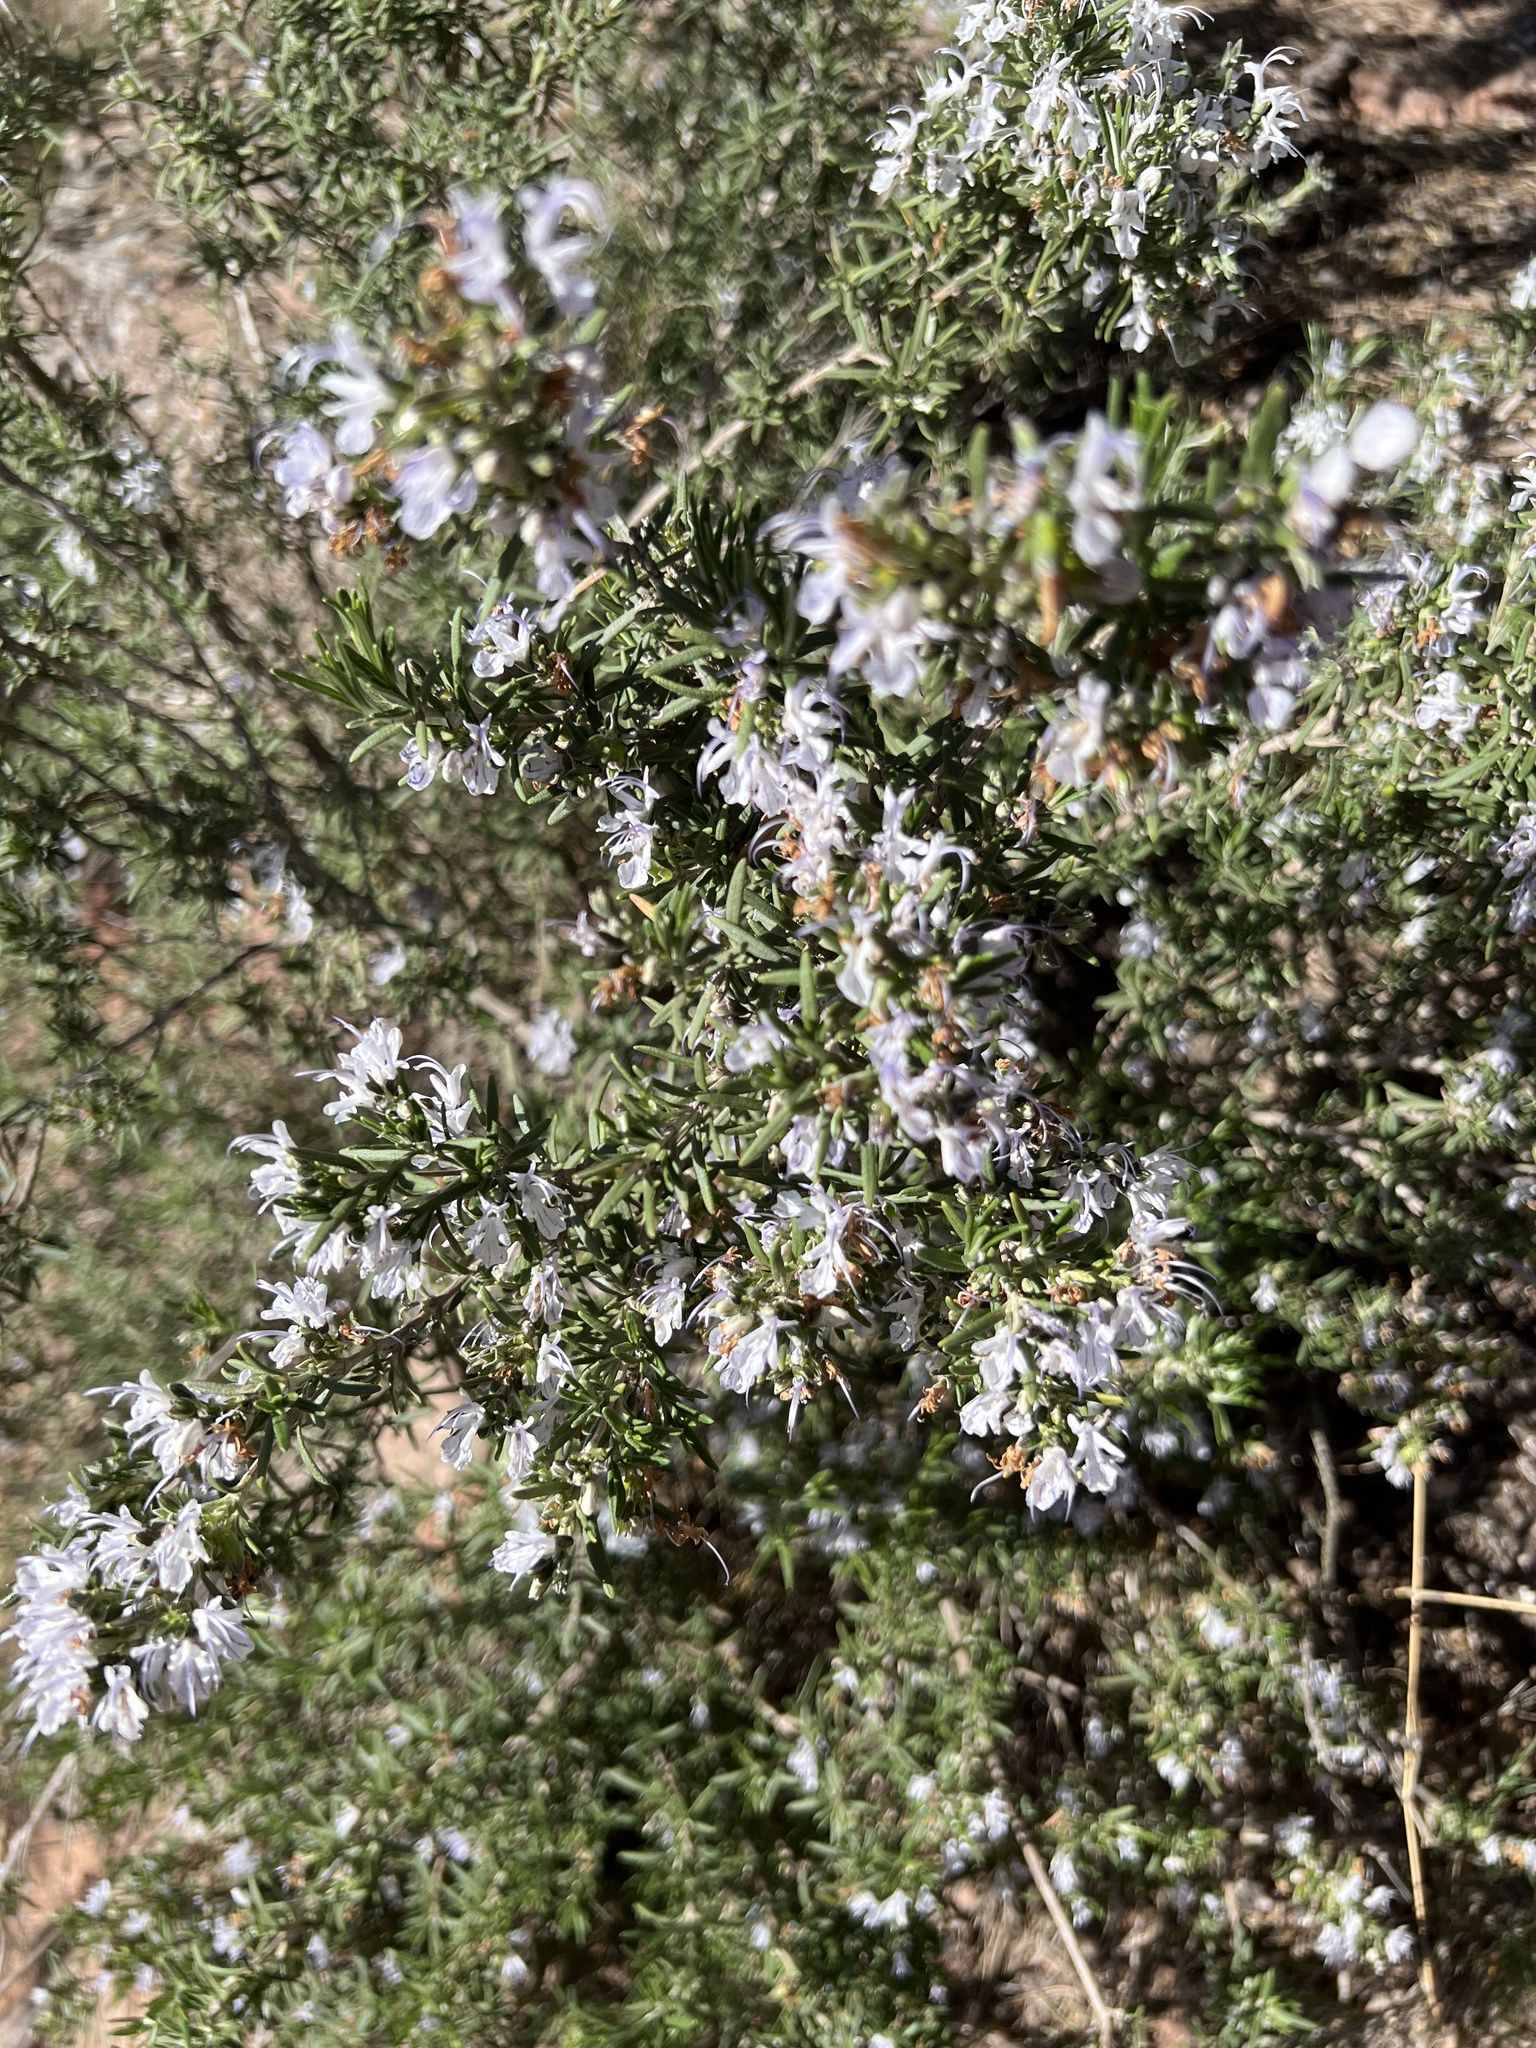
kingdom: Plantae
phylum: Tracheophyta
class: Magnoliopsida
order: Lamiales
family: Lamiaceae
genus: Salvia
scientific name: Salvia rosmarinus
